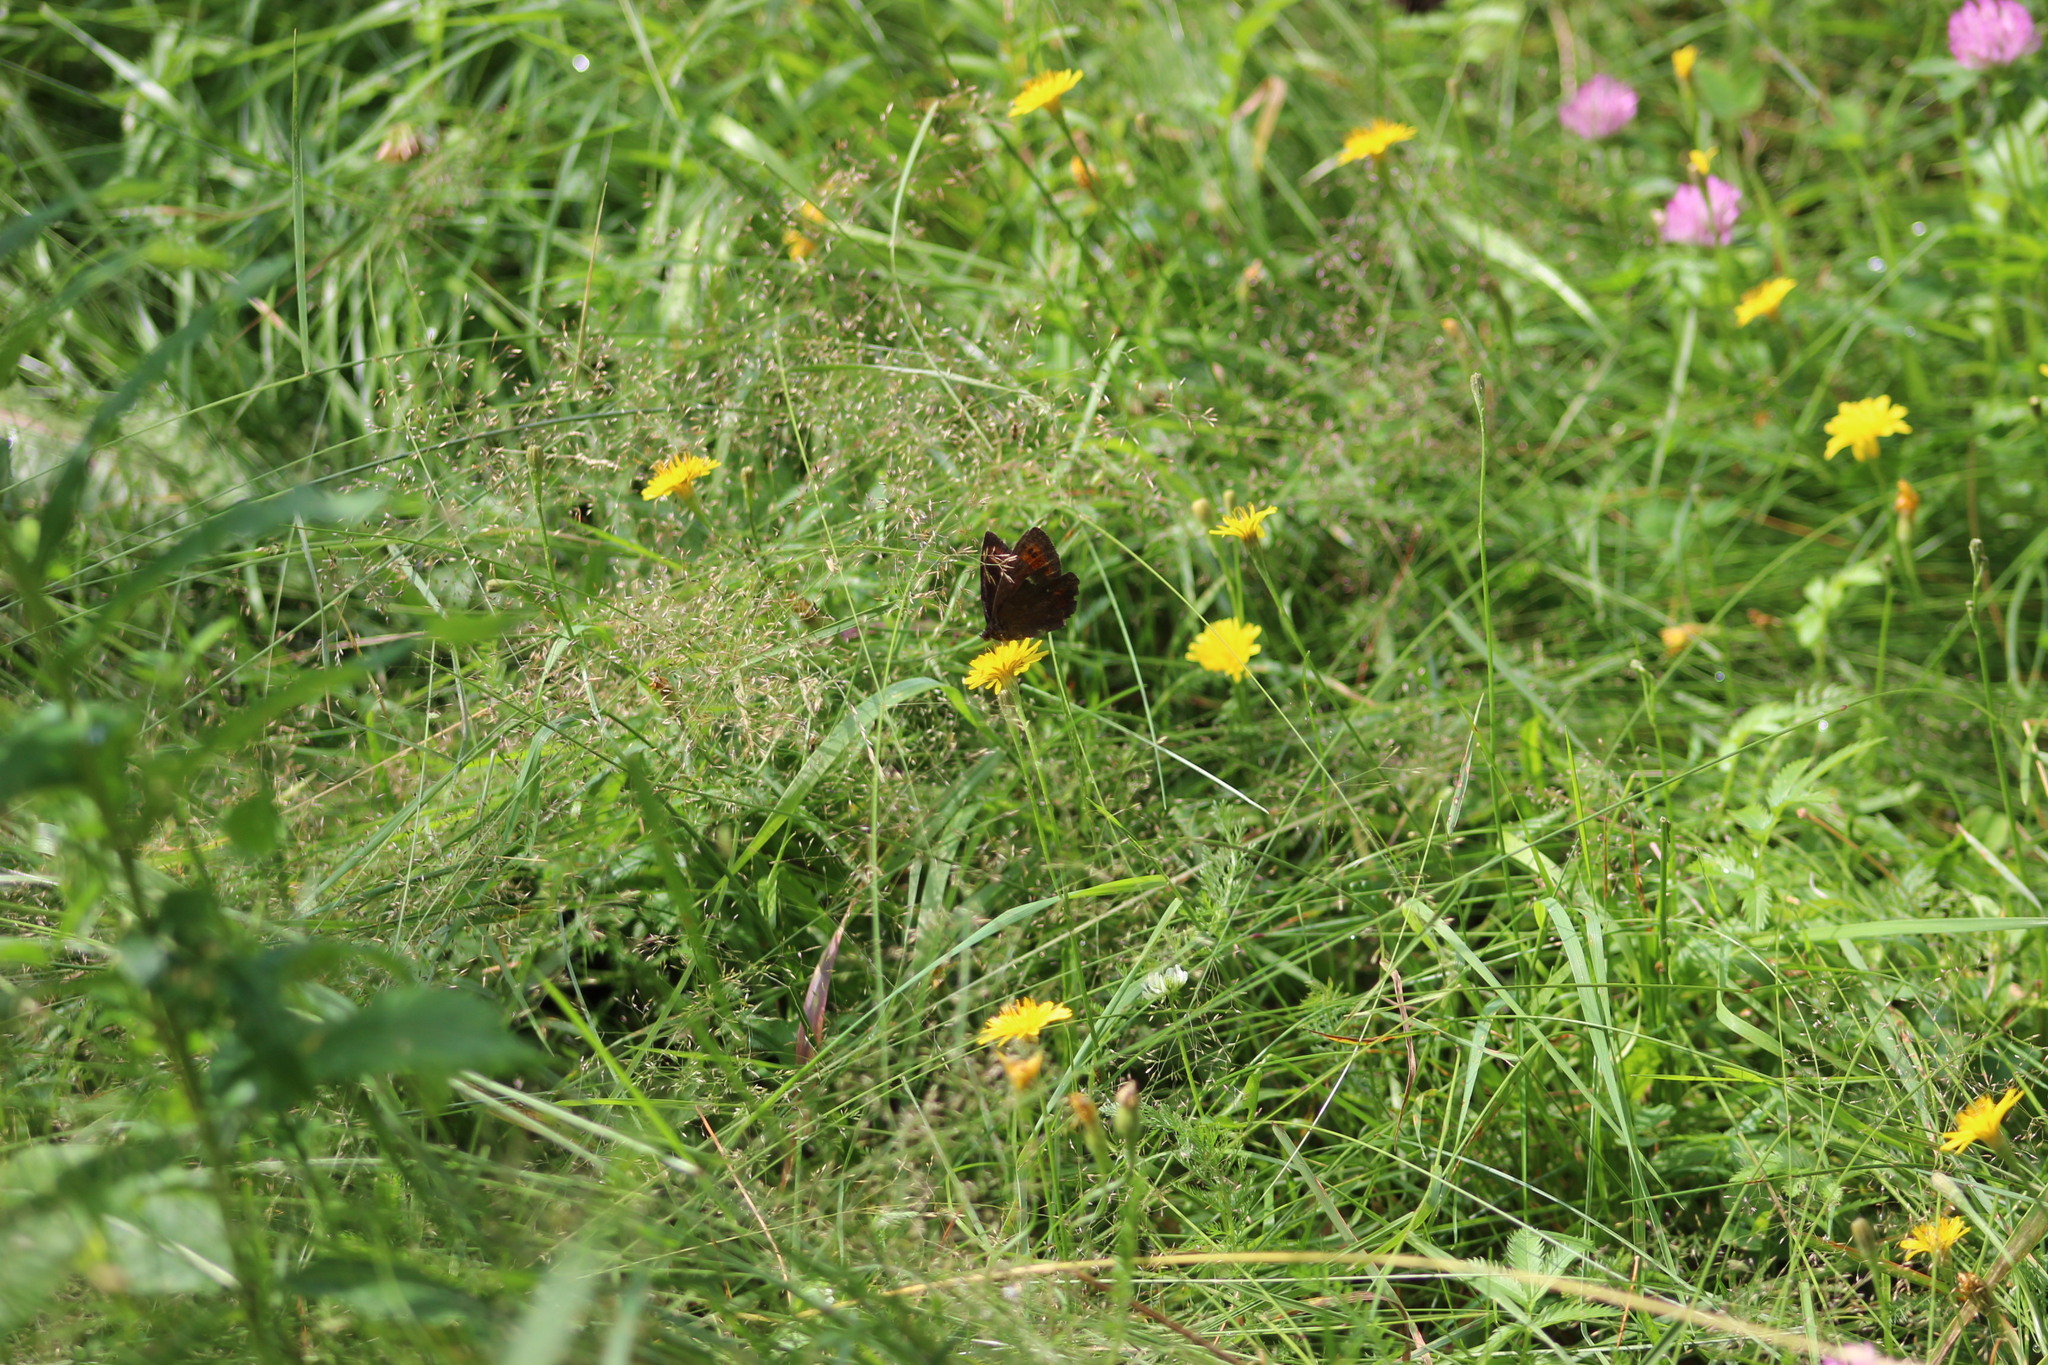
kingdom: Animalia
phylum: Arthropoda
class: Insecta
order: Lepidoptera
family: Nymphalidae
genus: Erebia
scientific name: Erebia ligea
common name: Arran brown
